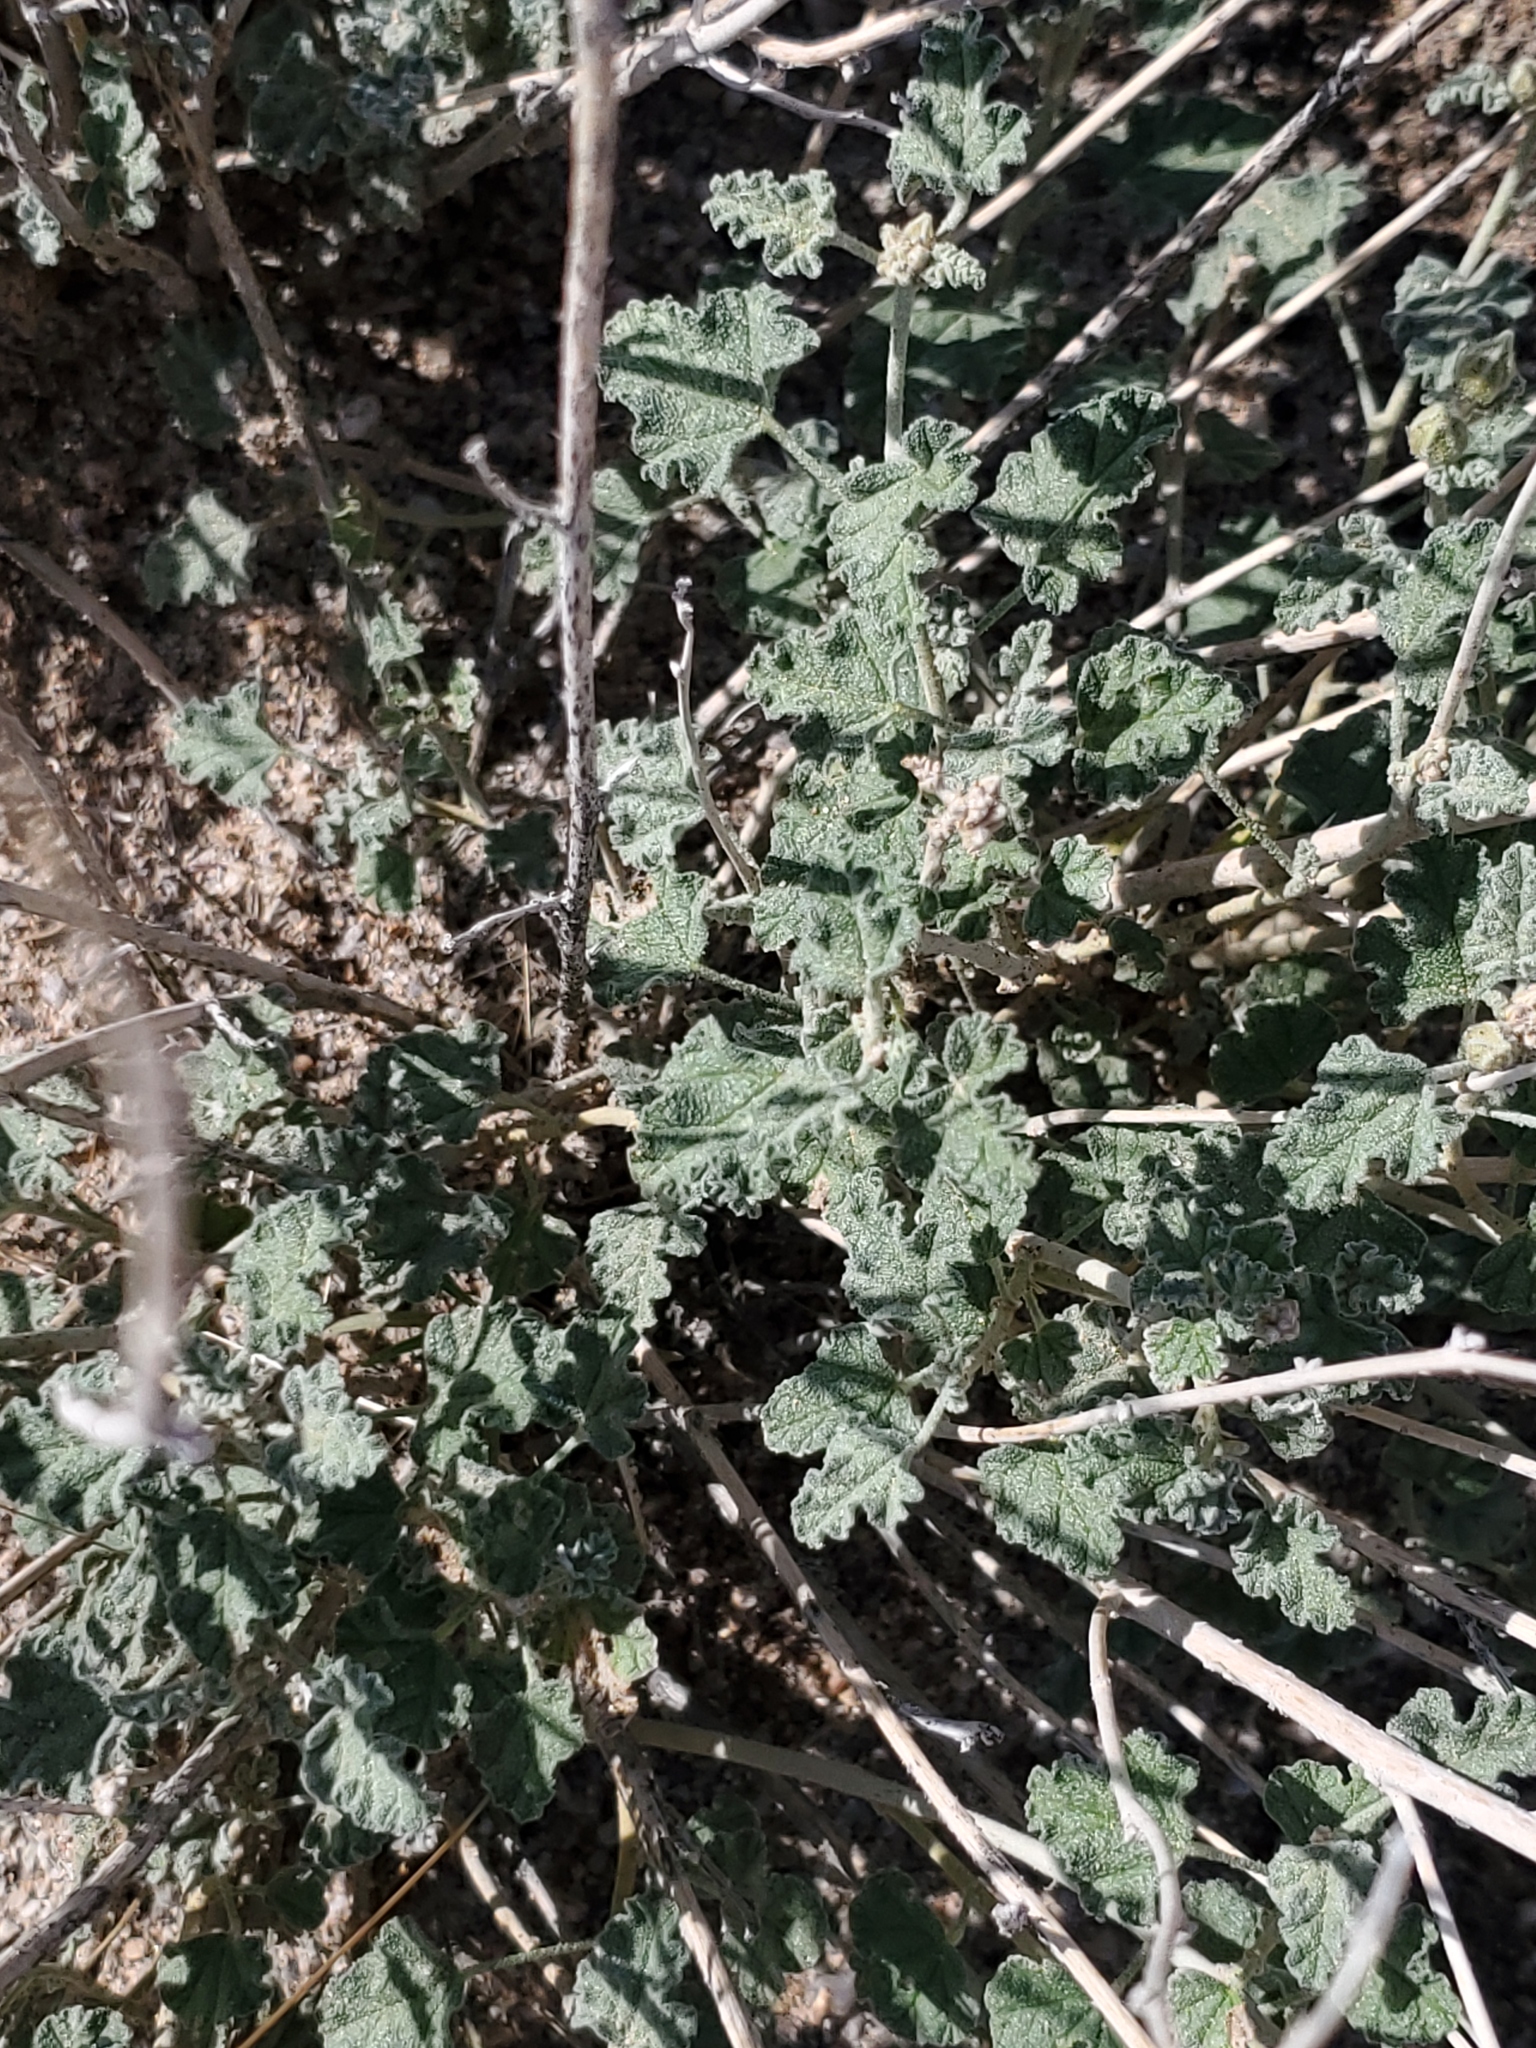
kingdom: Plantae
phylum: Tracheophyta
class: Magnoliopsida
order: Malvales
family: Malvaceae
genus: Sphaeralcea
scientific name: Sphaeralcea ambigua
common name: Apricot globe-mallow
